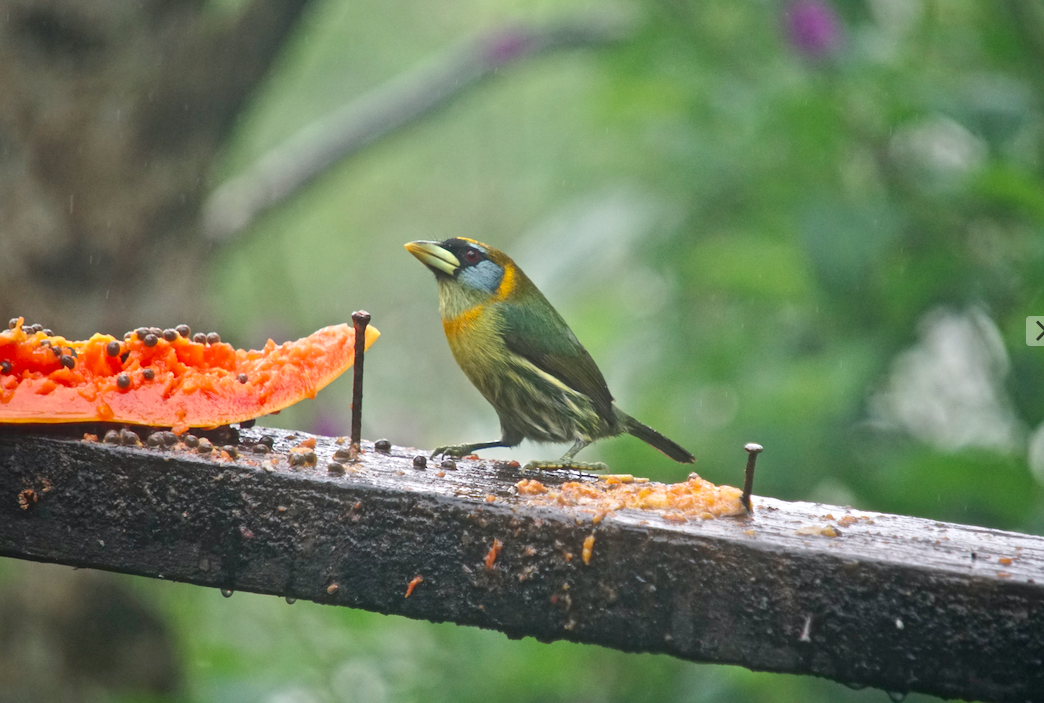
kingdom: Animalia
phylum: Chordata
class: Aves
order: Piciformes
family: Capitonidae
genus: Eubucco
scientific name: Eubucco bourcierii
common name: Red-headed barbet
